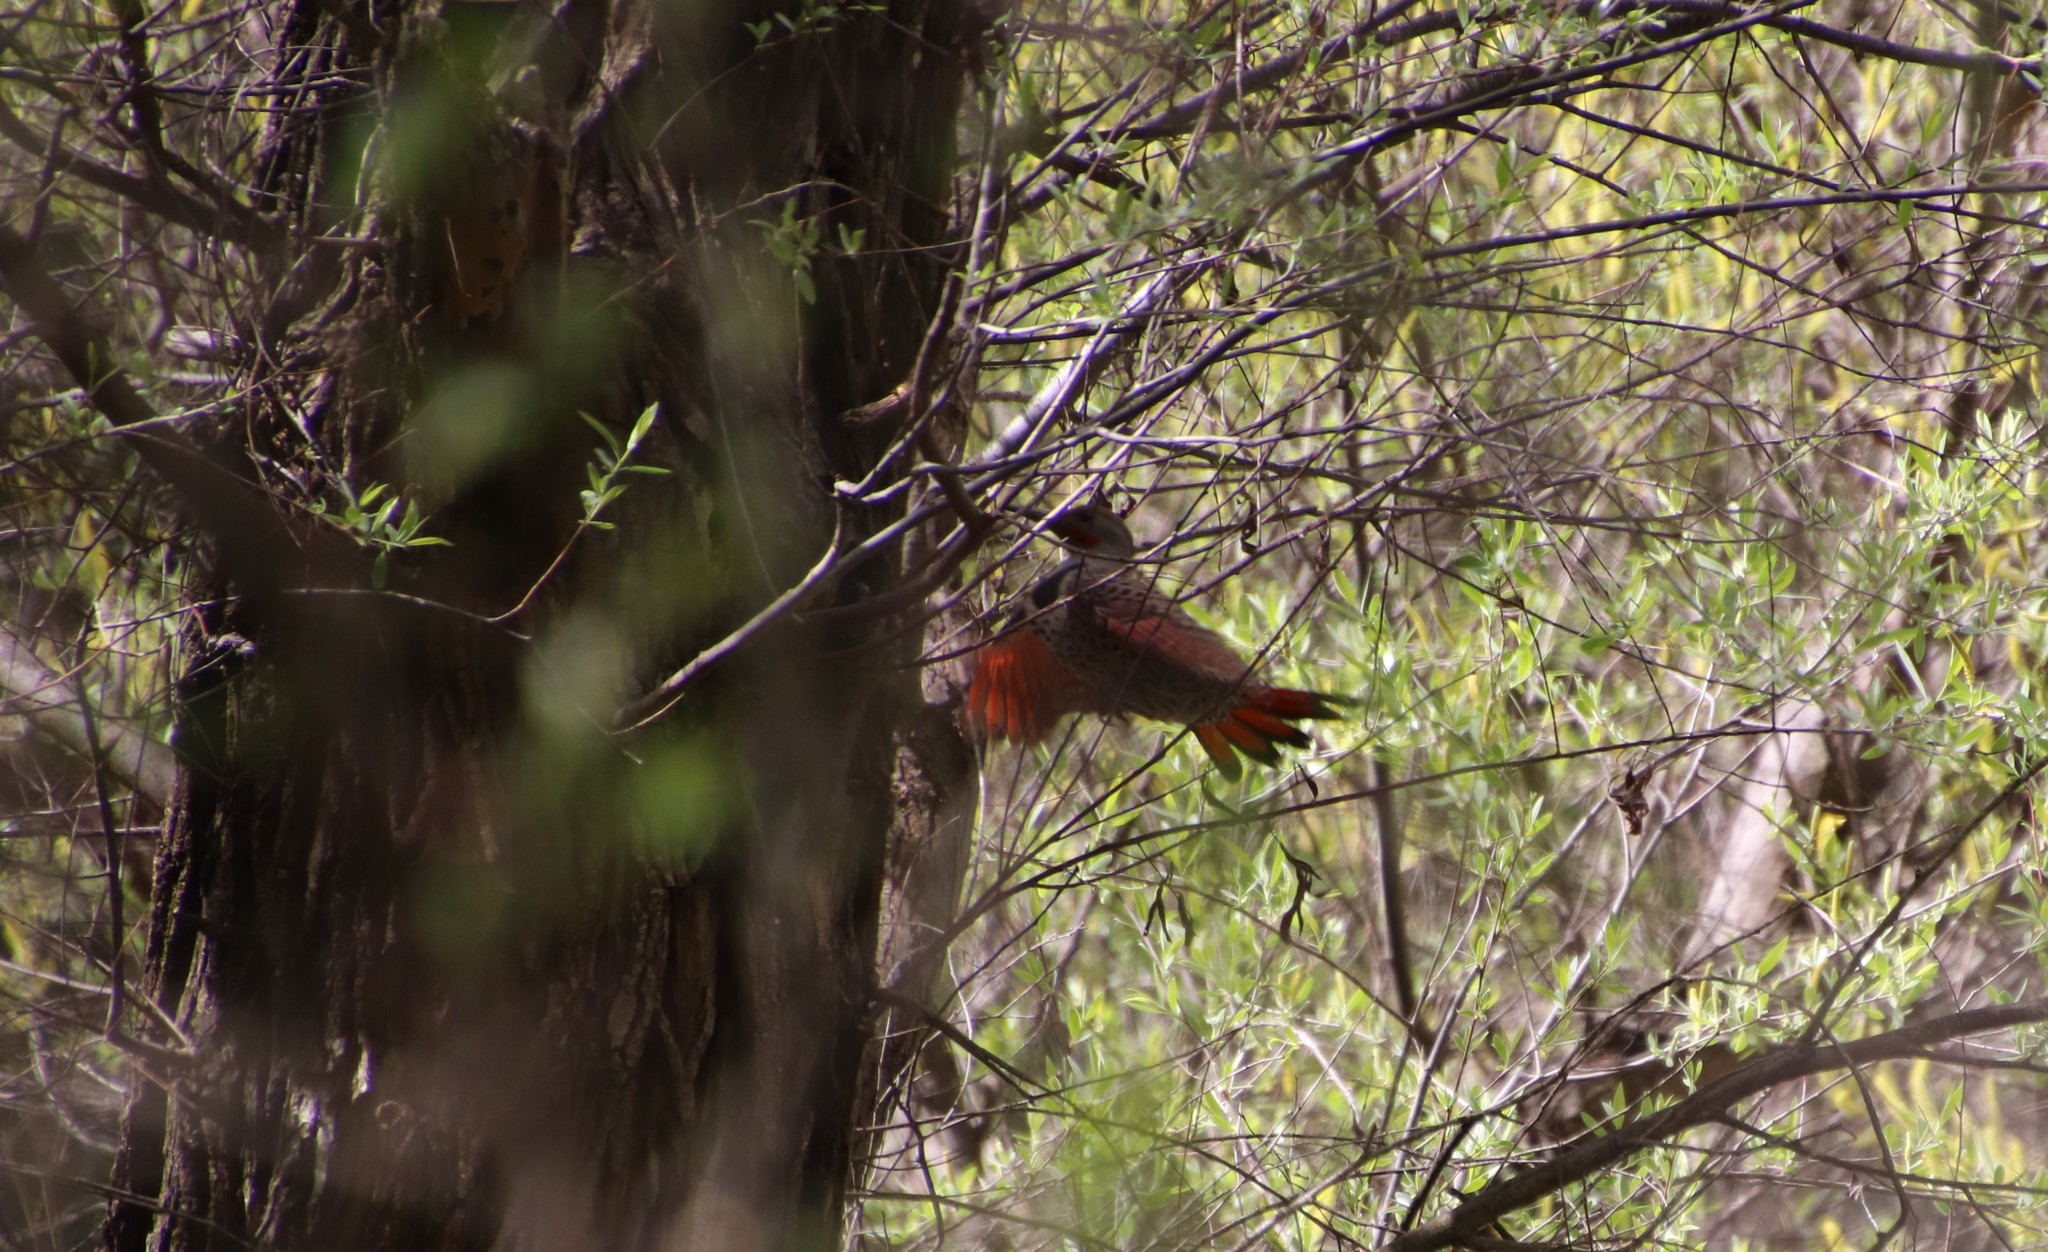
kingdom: Animalia
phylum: Chordata
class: Aves
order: Piciformes
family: Picidae
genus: Colaptes
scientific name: Colaptes auratus
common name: Northern flicker
